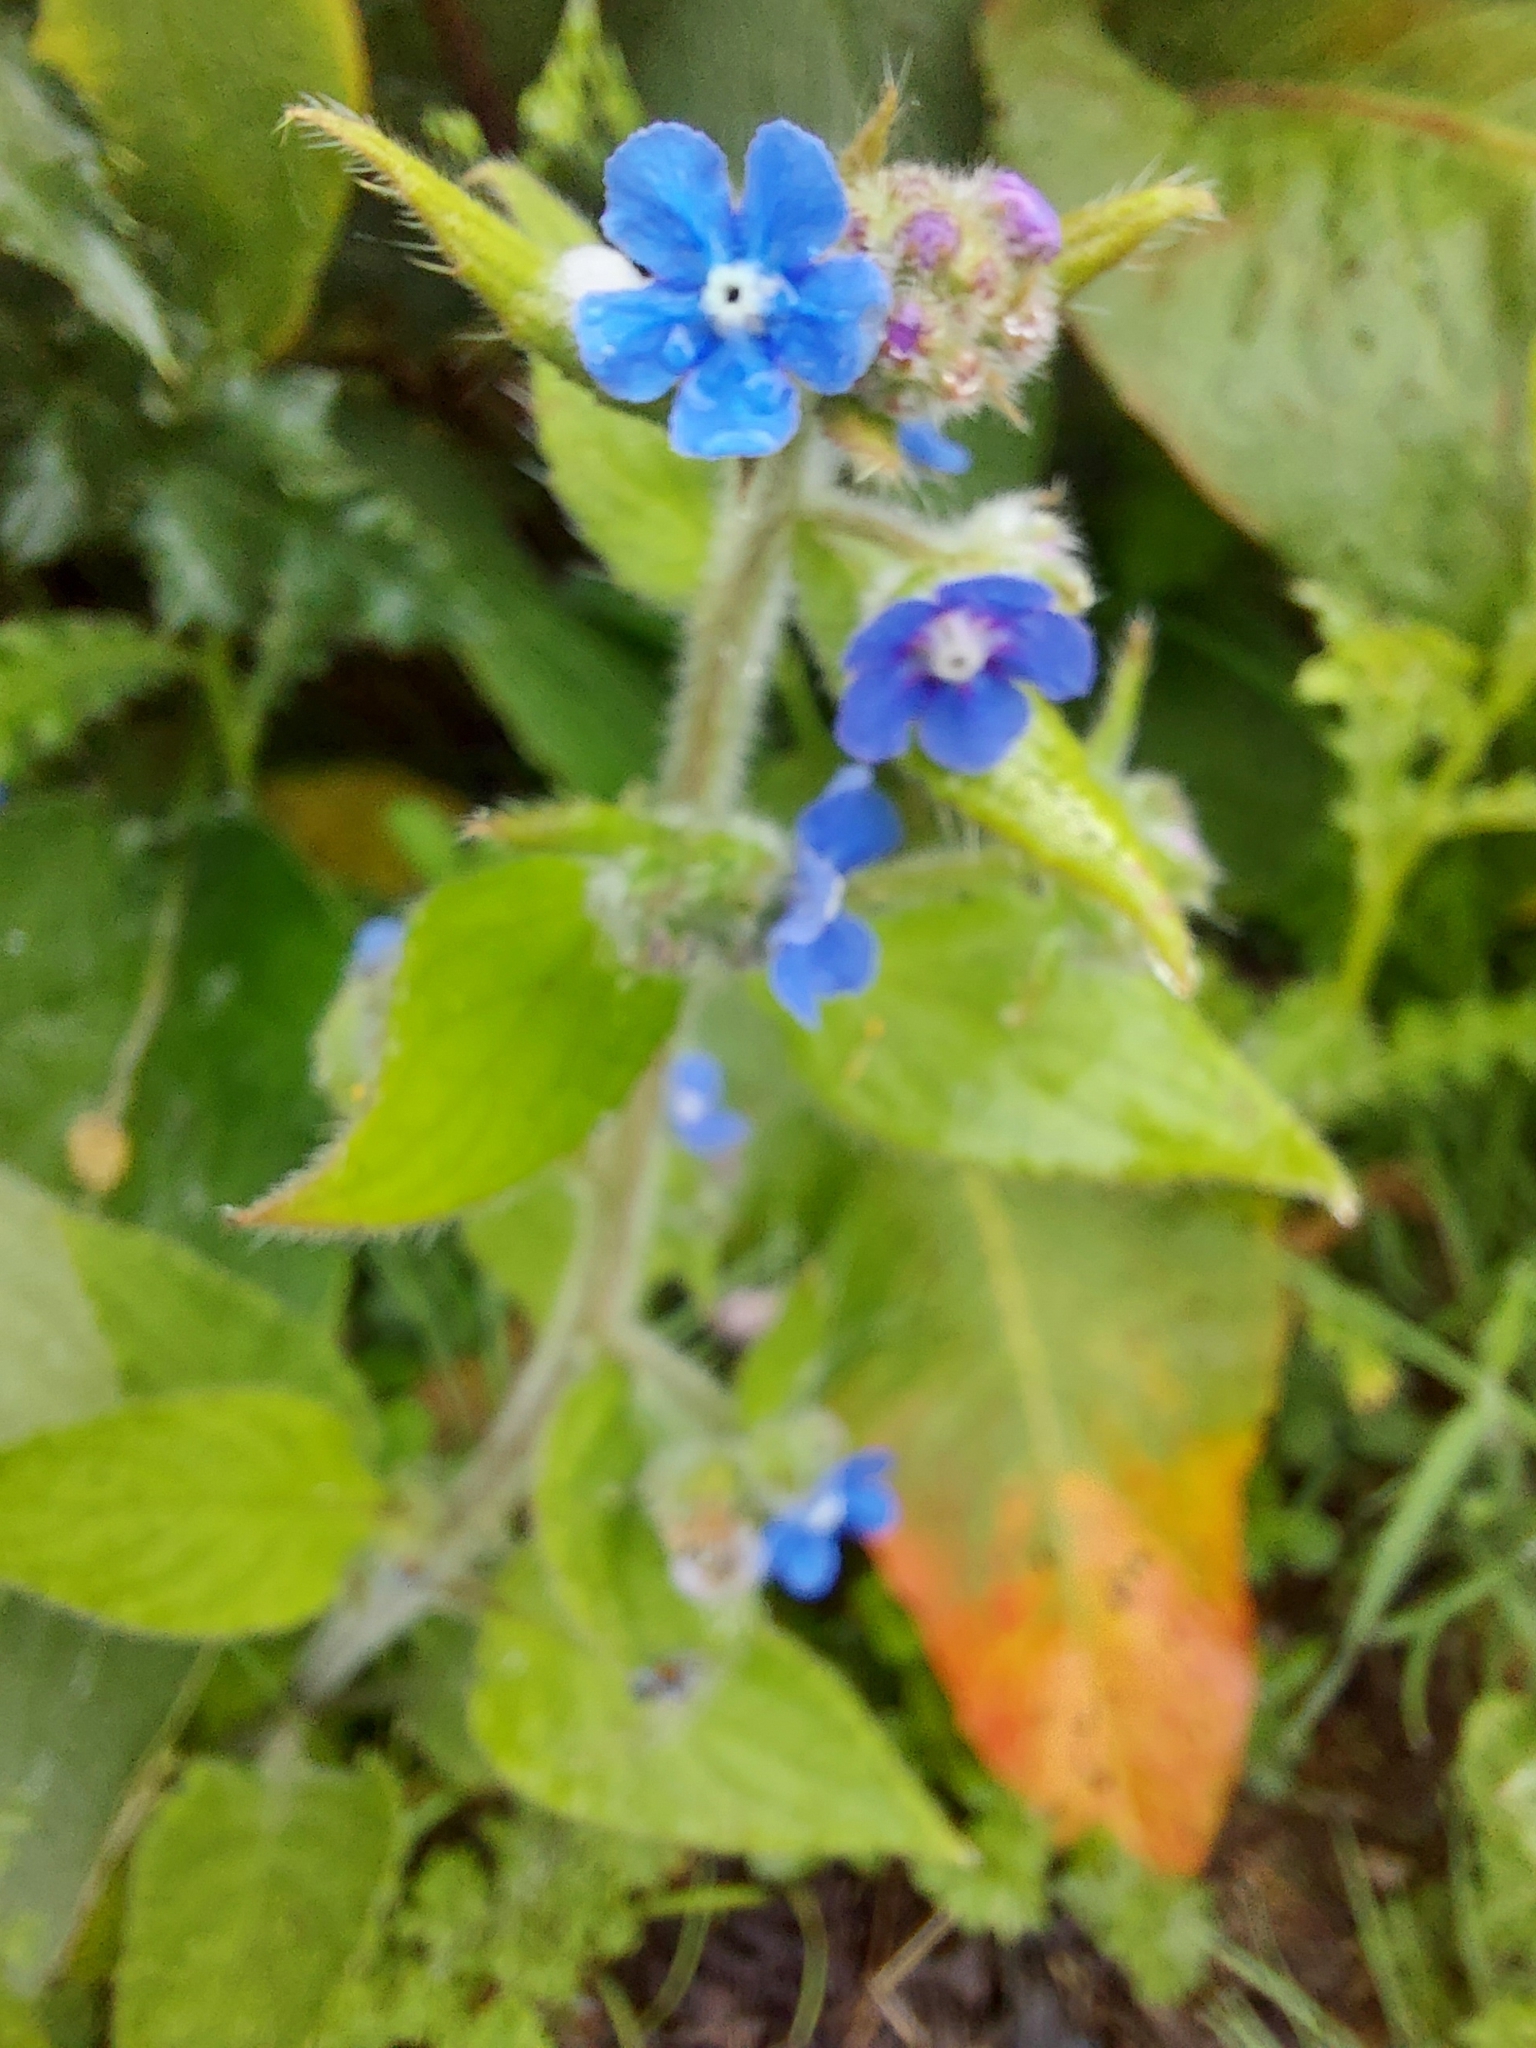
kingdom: Plantae
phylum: Tracheophyta
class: Magnoliopsida
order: Boraginales
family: Boraginaceae
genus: Pentaglottis
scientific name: Pentaglottis sempervirens
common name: Green alkanet
